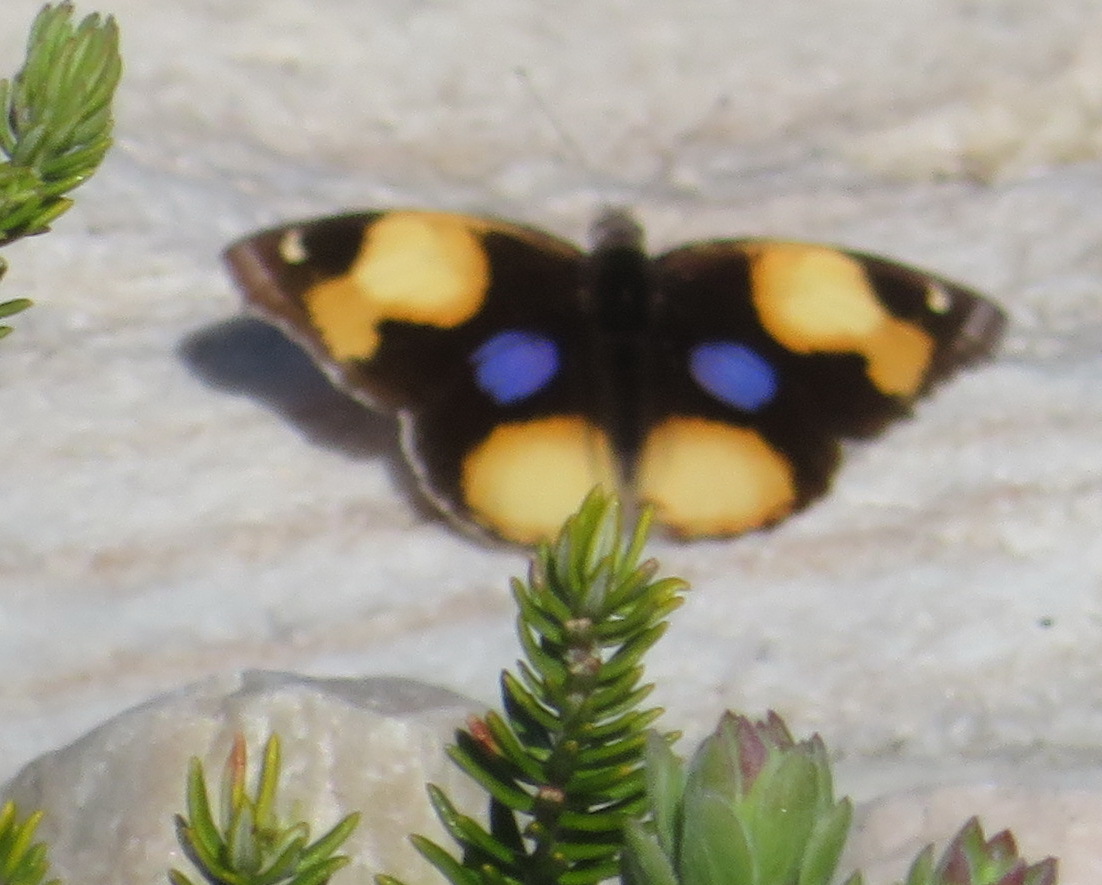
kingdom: Animalia
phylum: Arthropoda
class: Insecta
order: Lepidoptera
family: Nymphalidae
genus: Junonia
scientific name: Junonia hierta
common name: Yellow pansy
